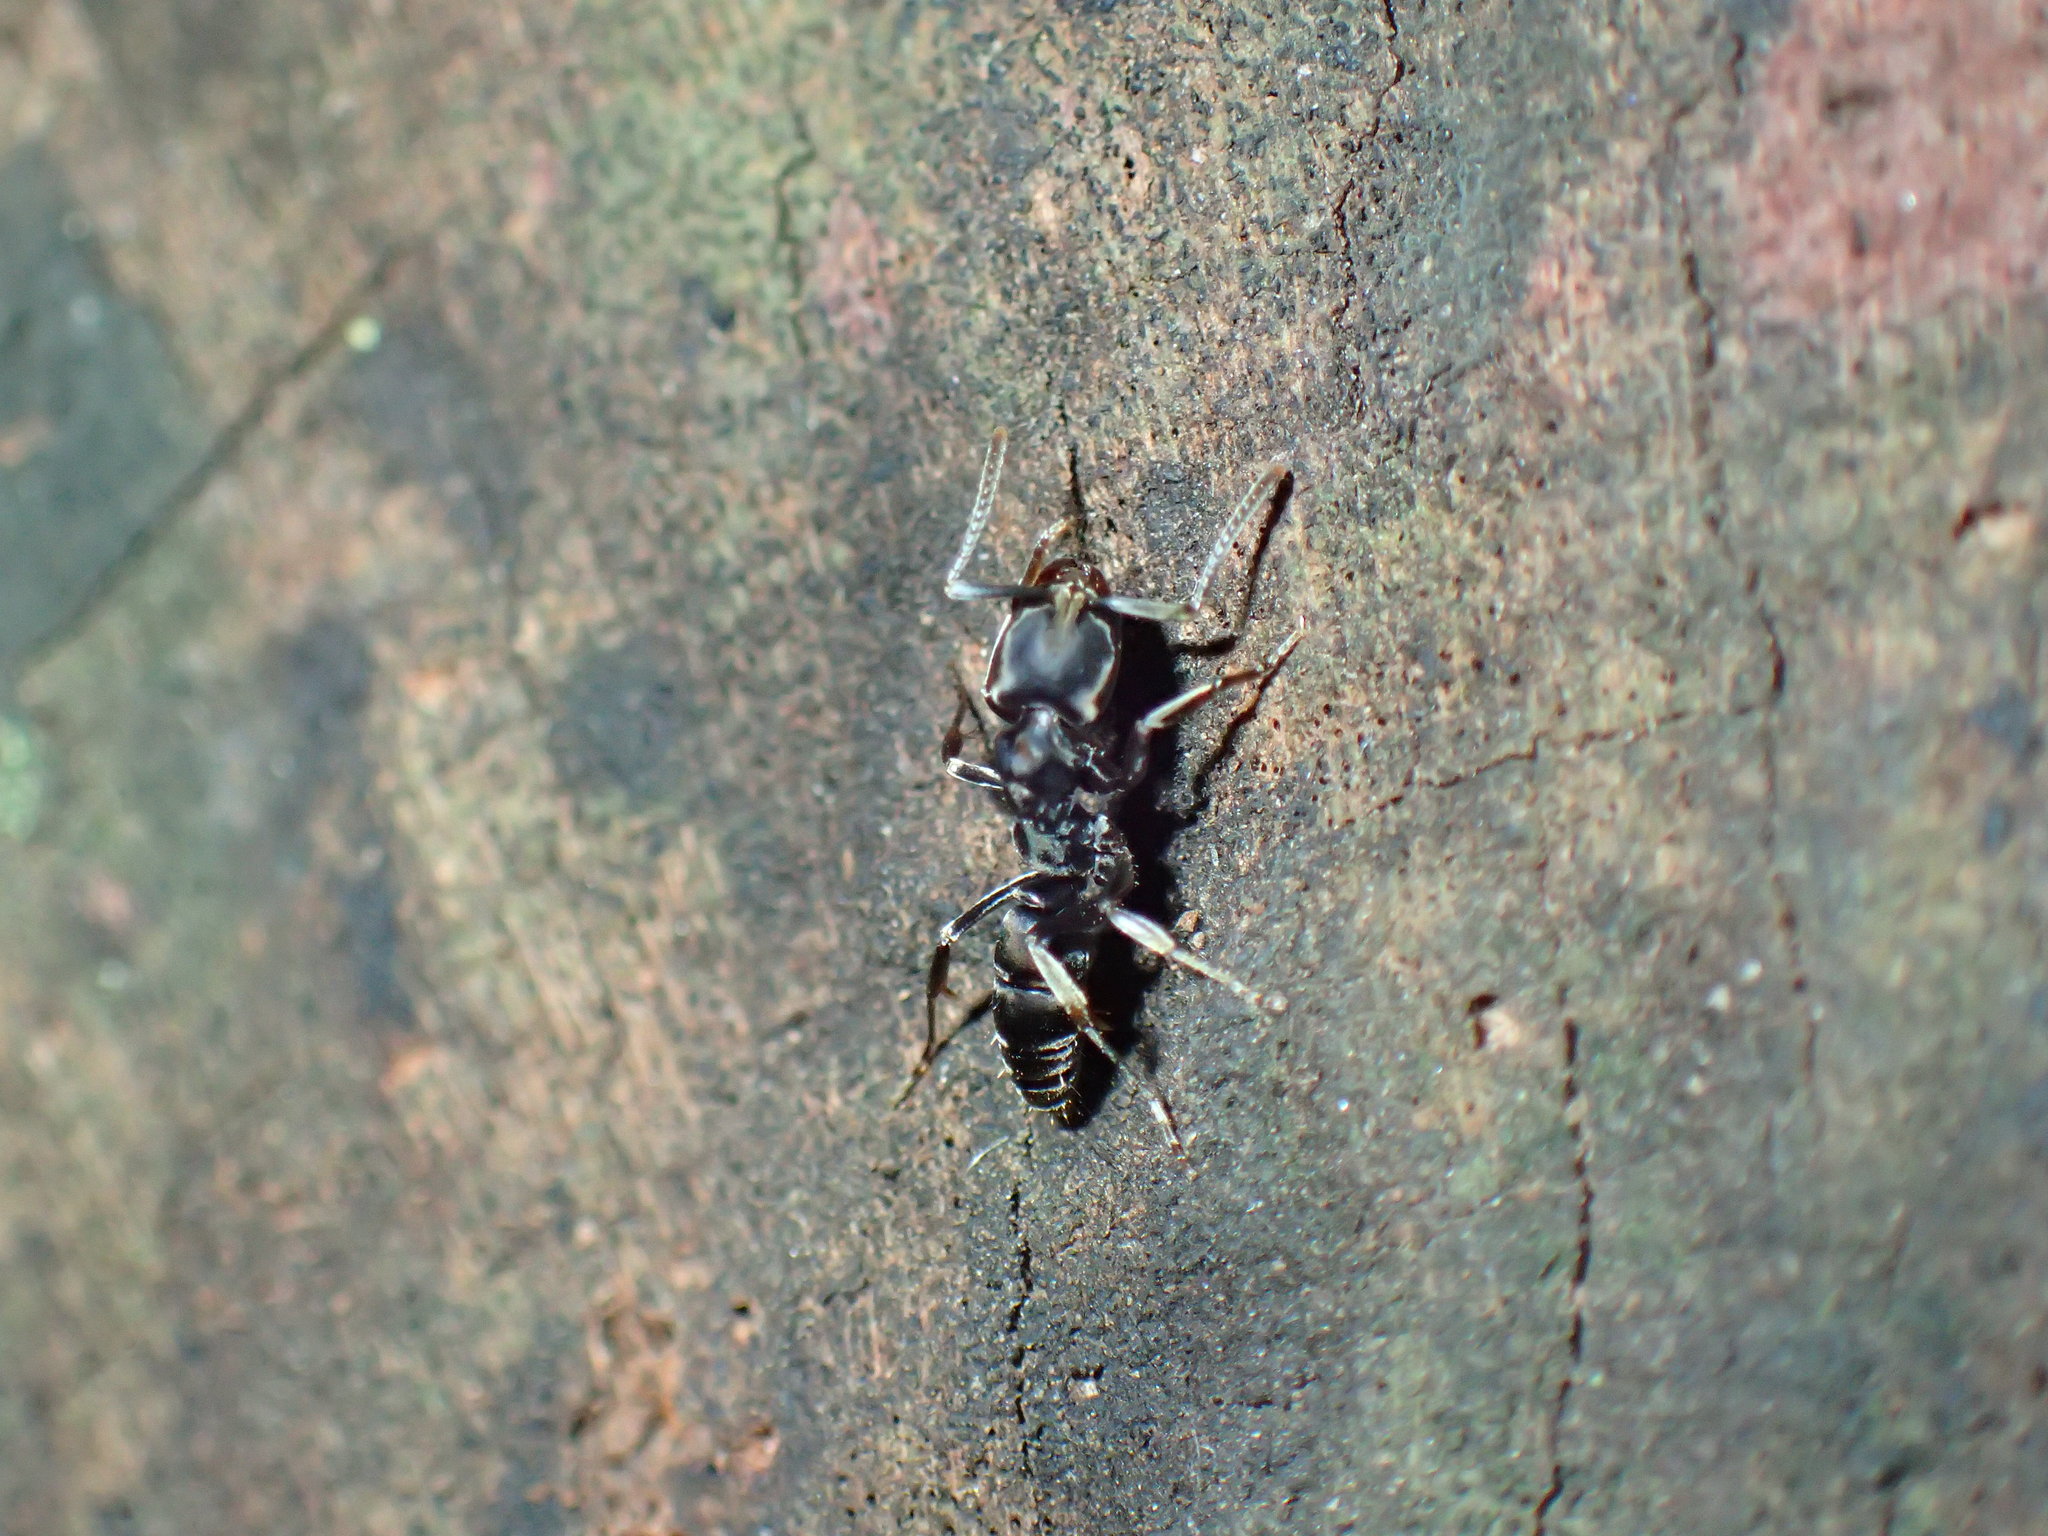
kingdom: Animalia
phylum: Arthropoda
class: Insecta
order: Hymenoptera
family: Formicidae
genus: Mesoponera
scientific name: Mesoponera caffraria
